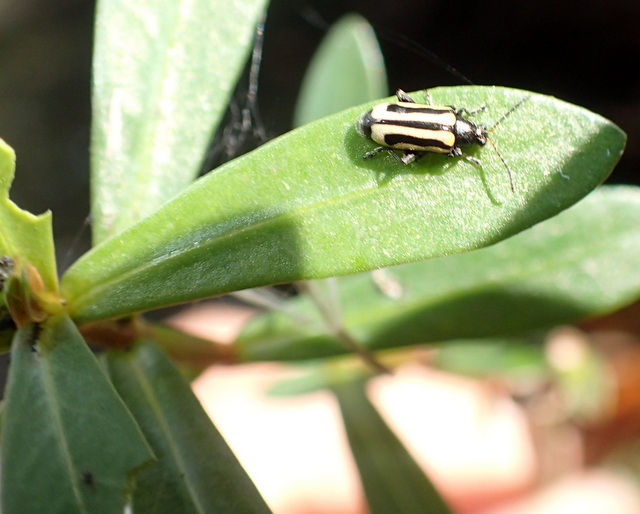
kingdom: Animalia
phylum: Arthropoda
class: Insecta
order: Coleoptera
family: Chrysomelidae
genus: Agasicles
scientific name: Agasicles hygrophila
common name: Alligatorweed flea beetle
